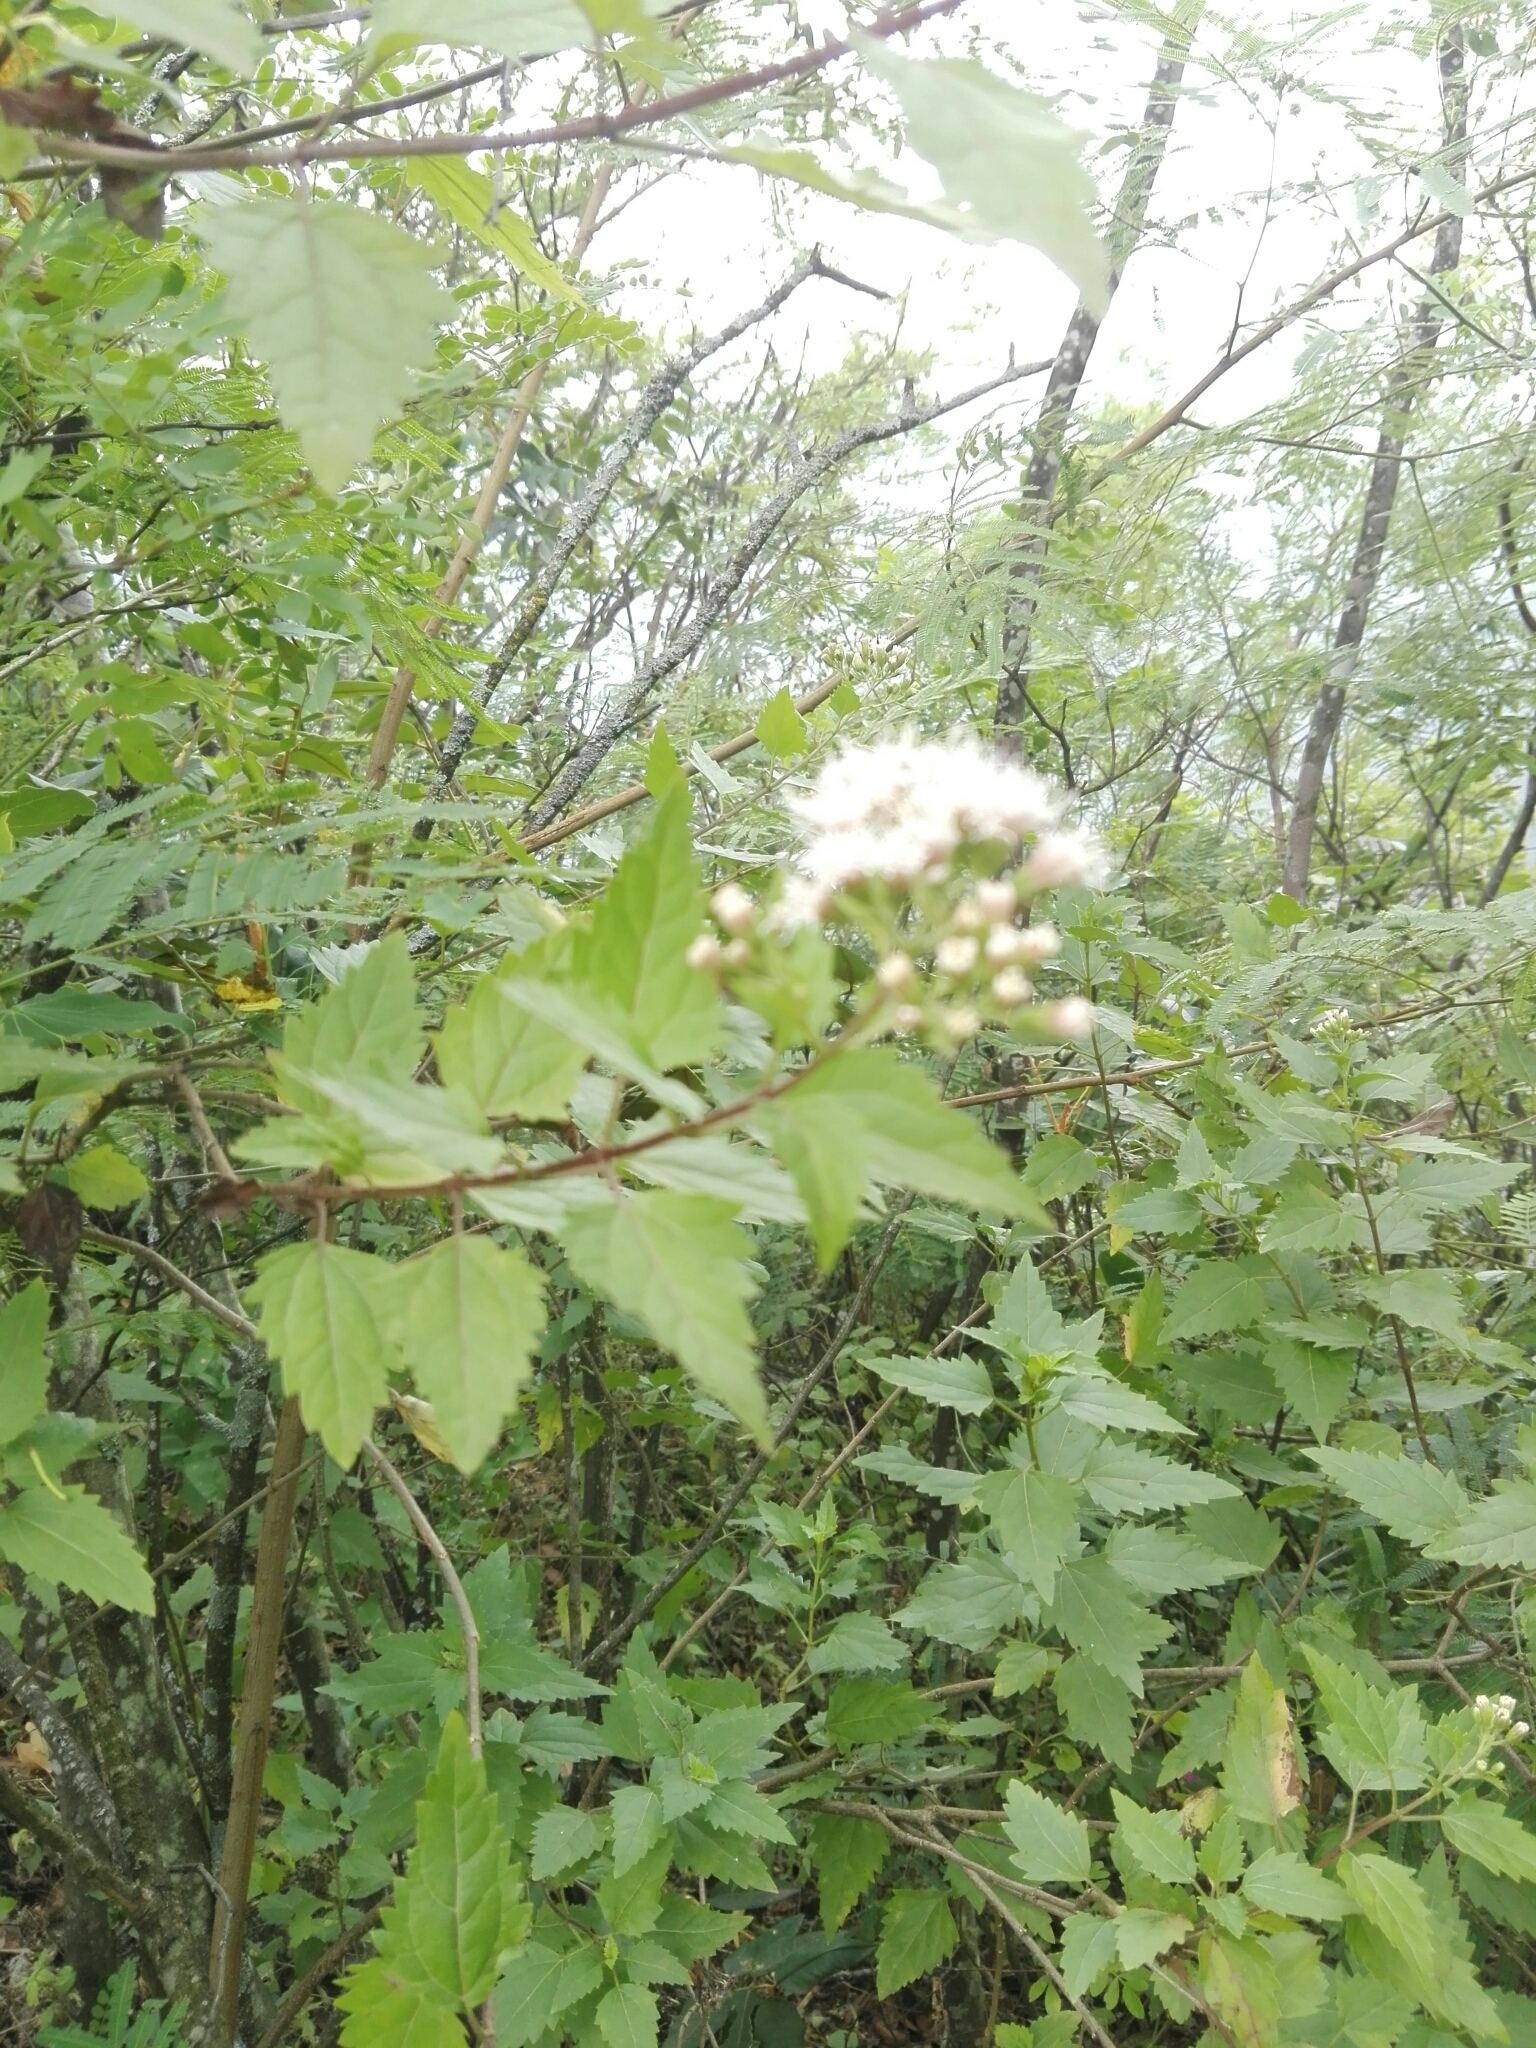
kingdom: Plantae
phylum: Tracheophyta
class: Magnoliopsida
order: Asterales
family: Asteraceae
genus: Ageratina
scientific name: Ageratina havanensis
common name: Havana snakeroot
